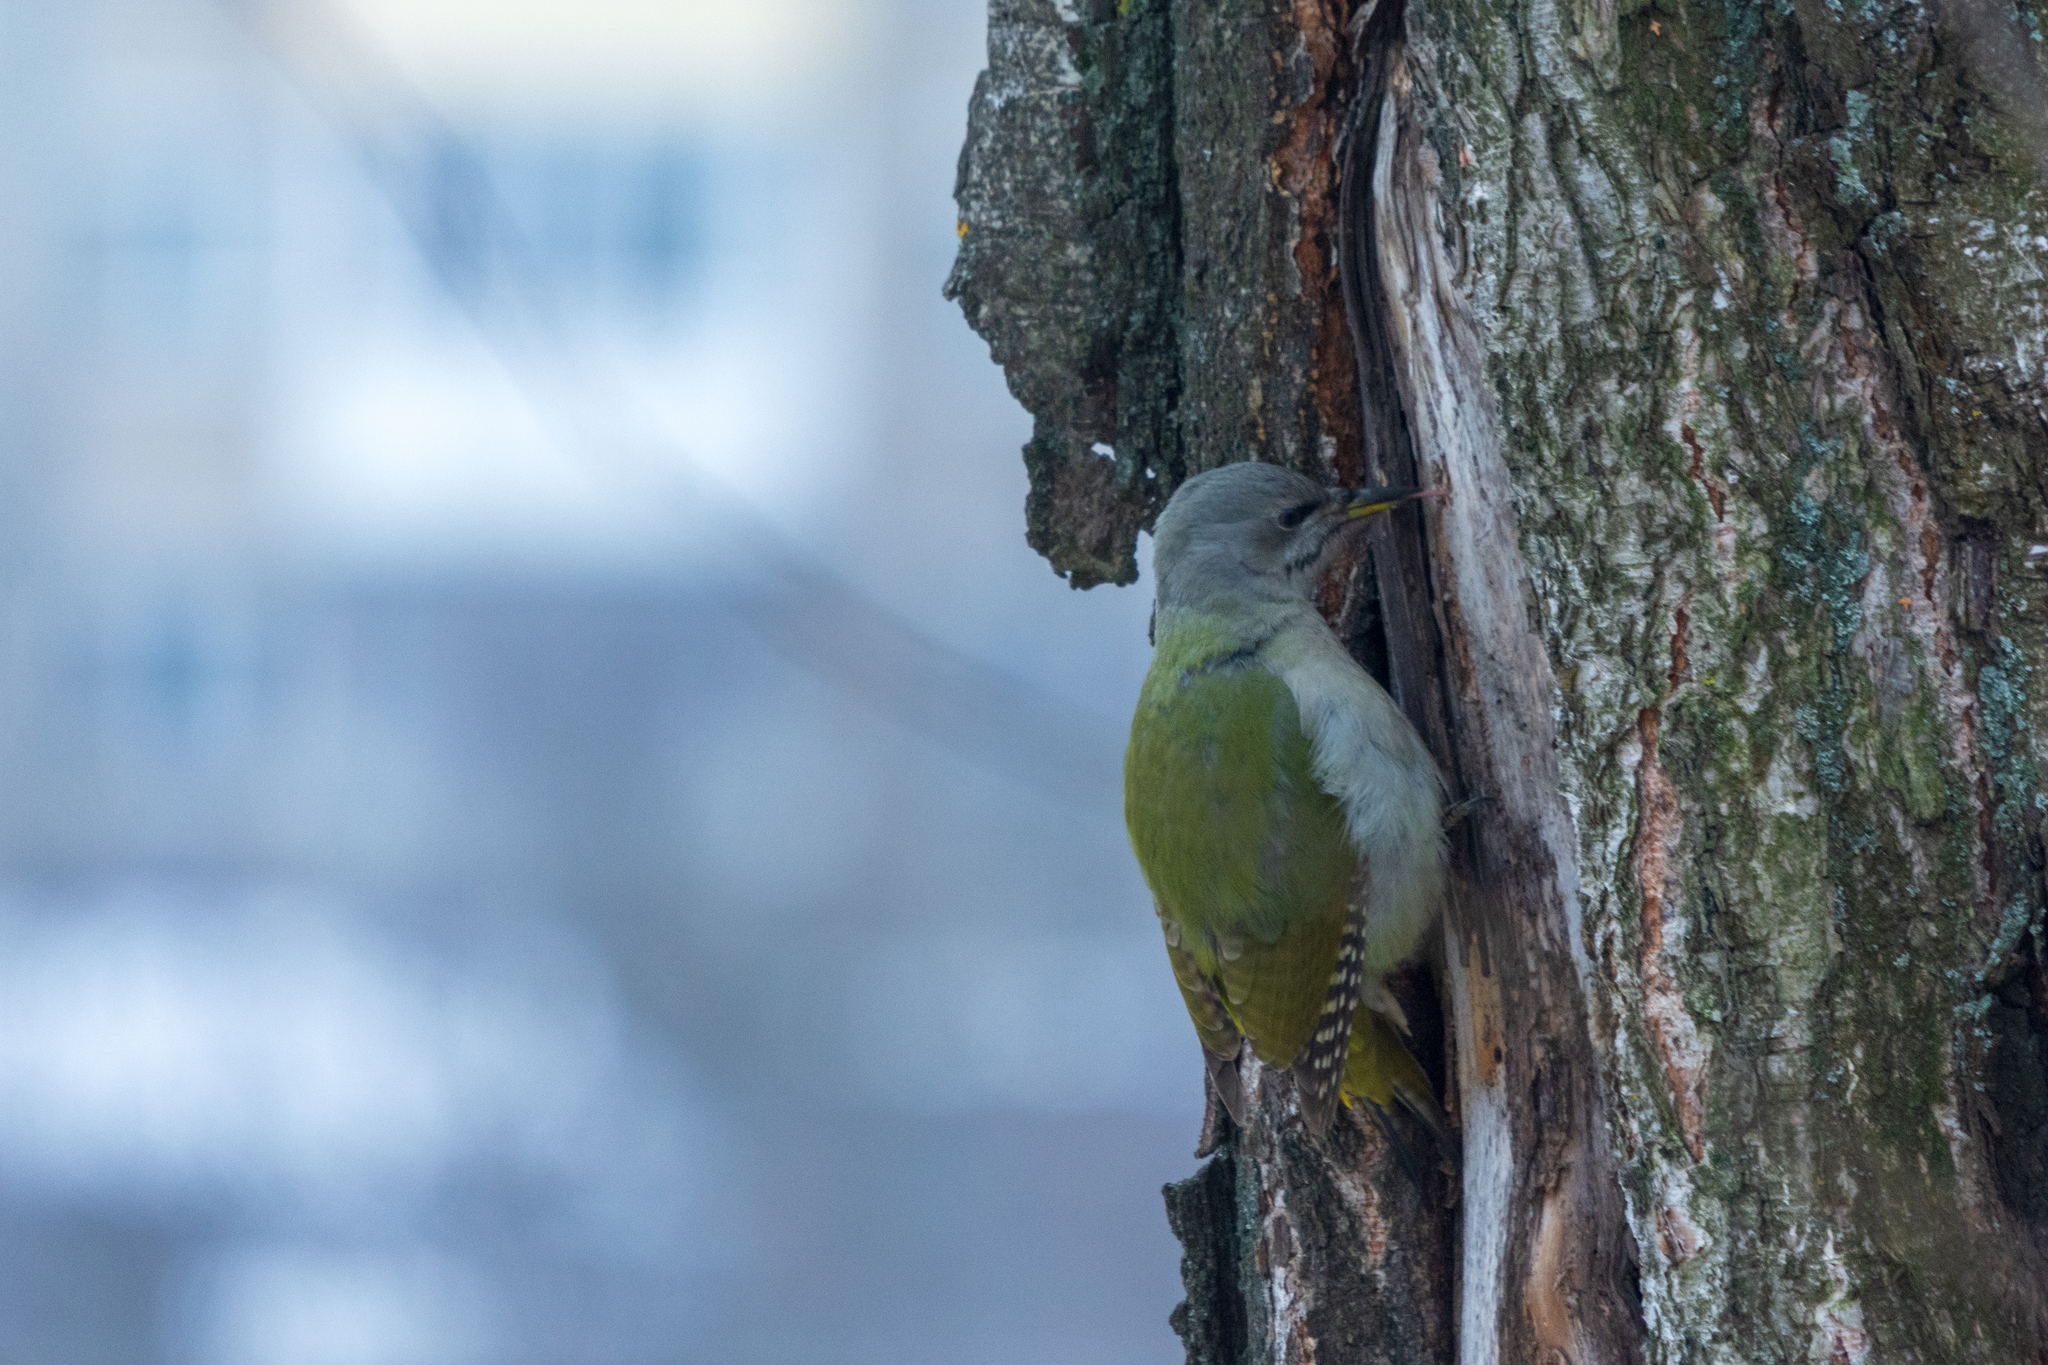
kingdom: Animalia
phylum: Chordata
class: Aves
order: Piciformes
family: Picidae
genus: Picus
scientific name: Picus canus
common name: Grey-headed woodpecker
